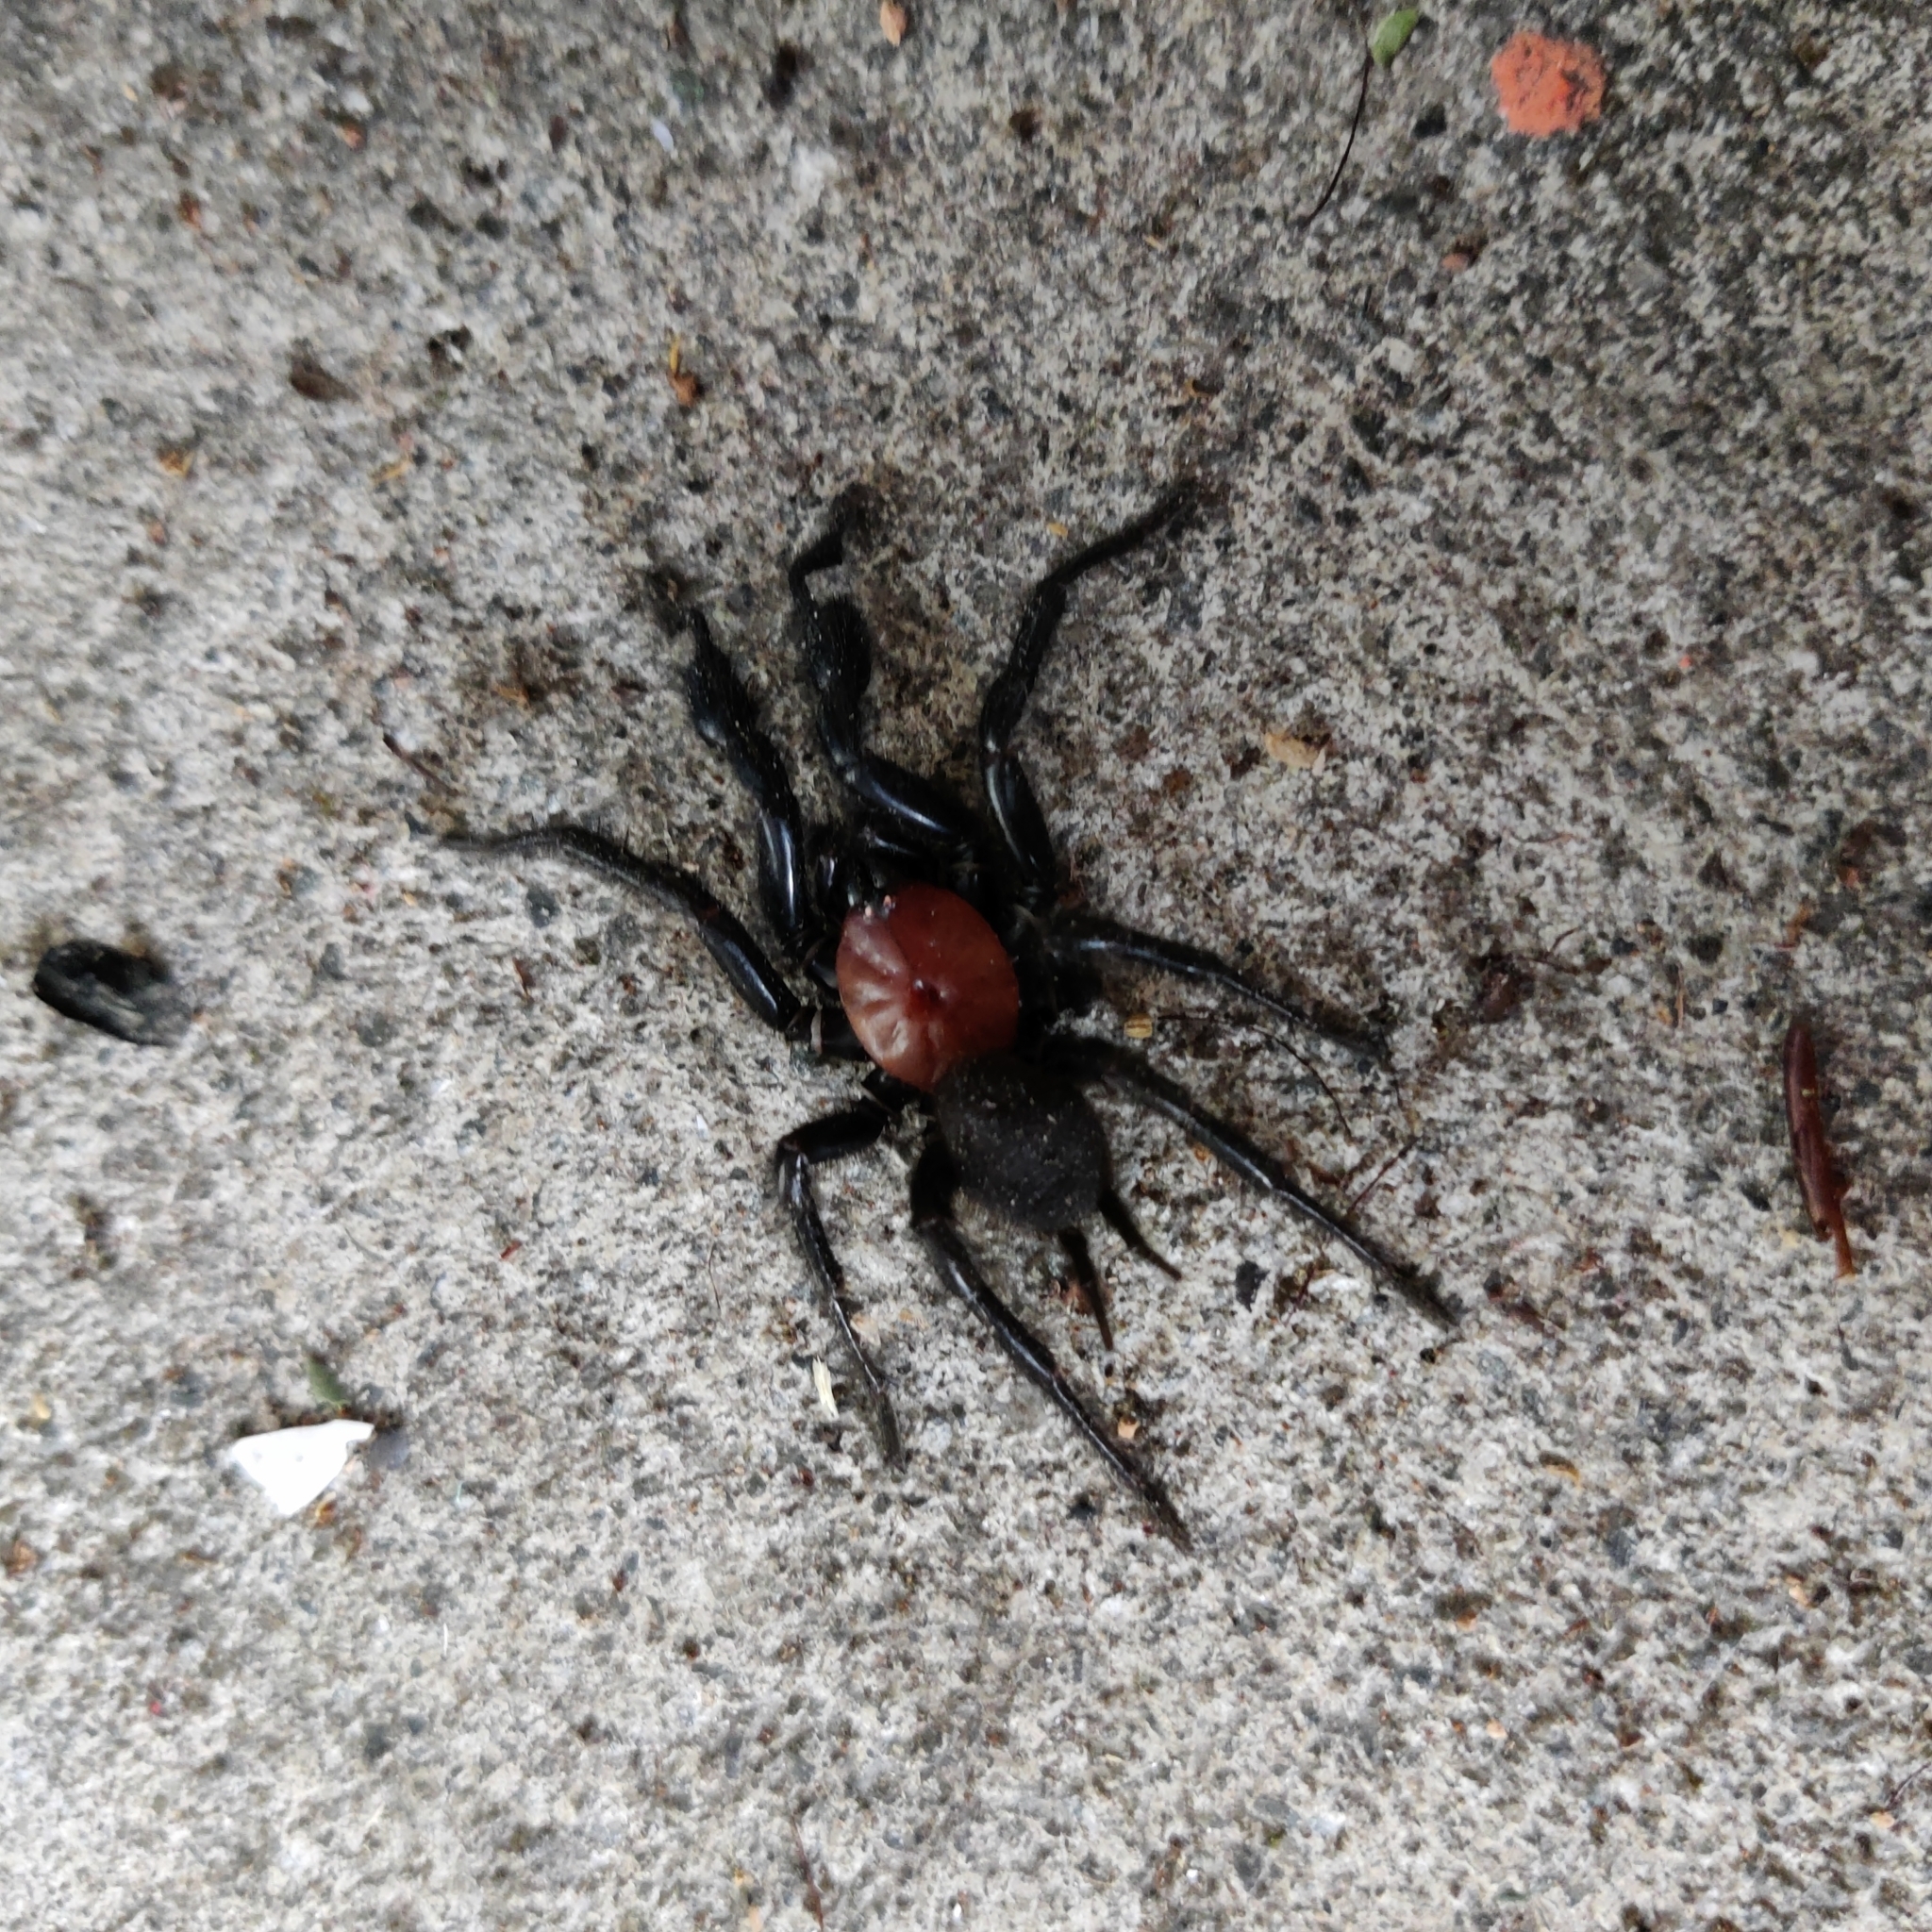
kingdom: Animalia
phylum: Arthropoda
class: Arachnida
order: Araneae
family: Porrhothelidae
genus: Porrhothele
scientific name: Porrhothele antipodiana
